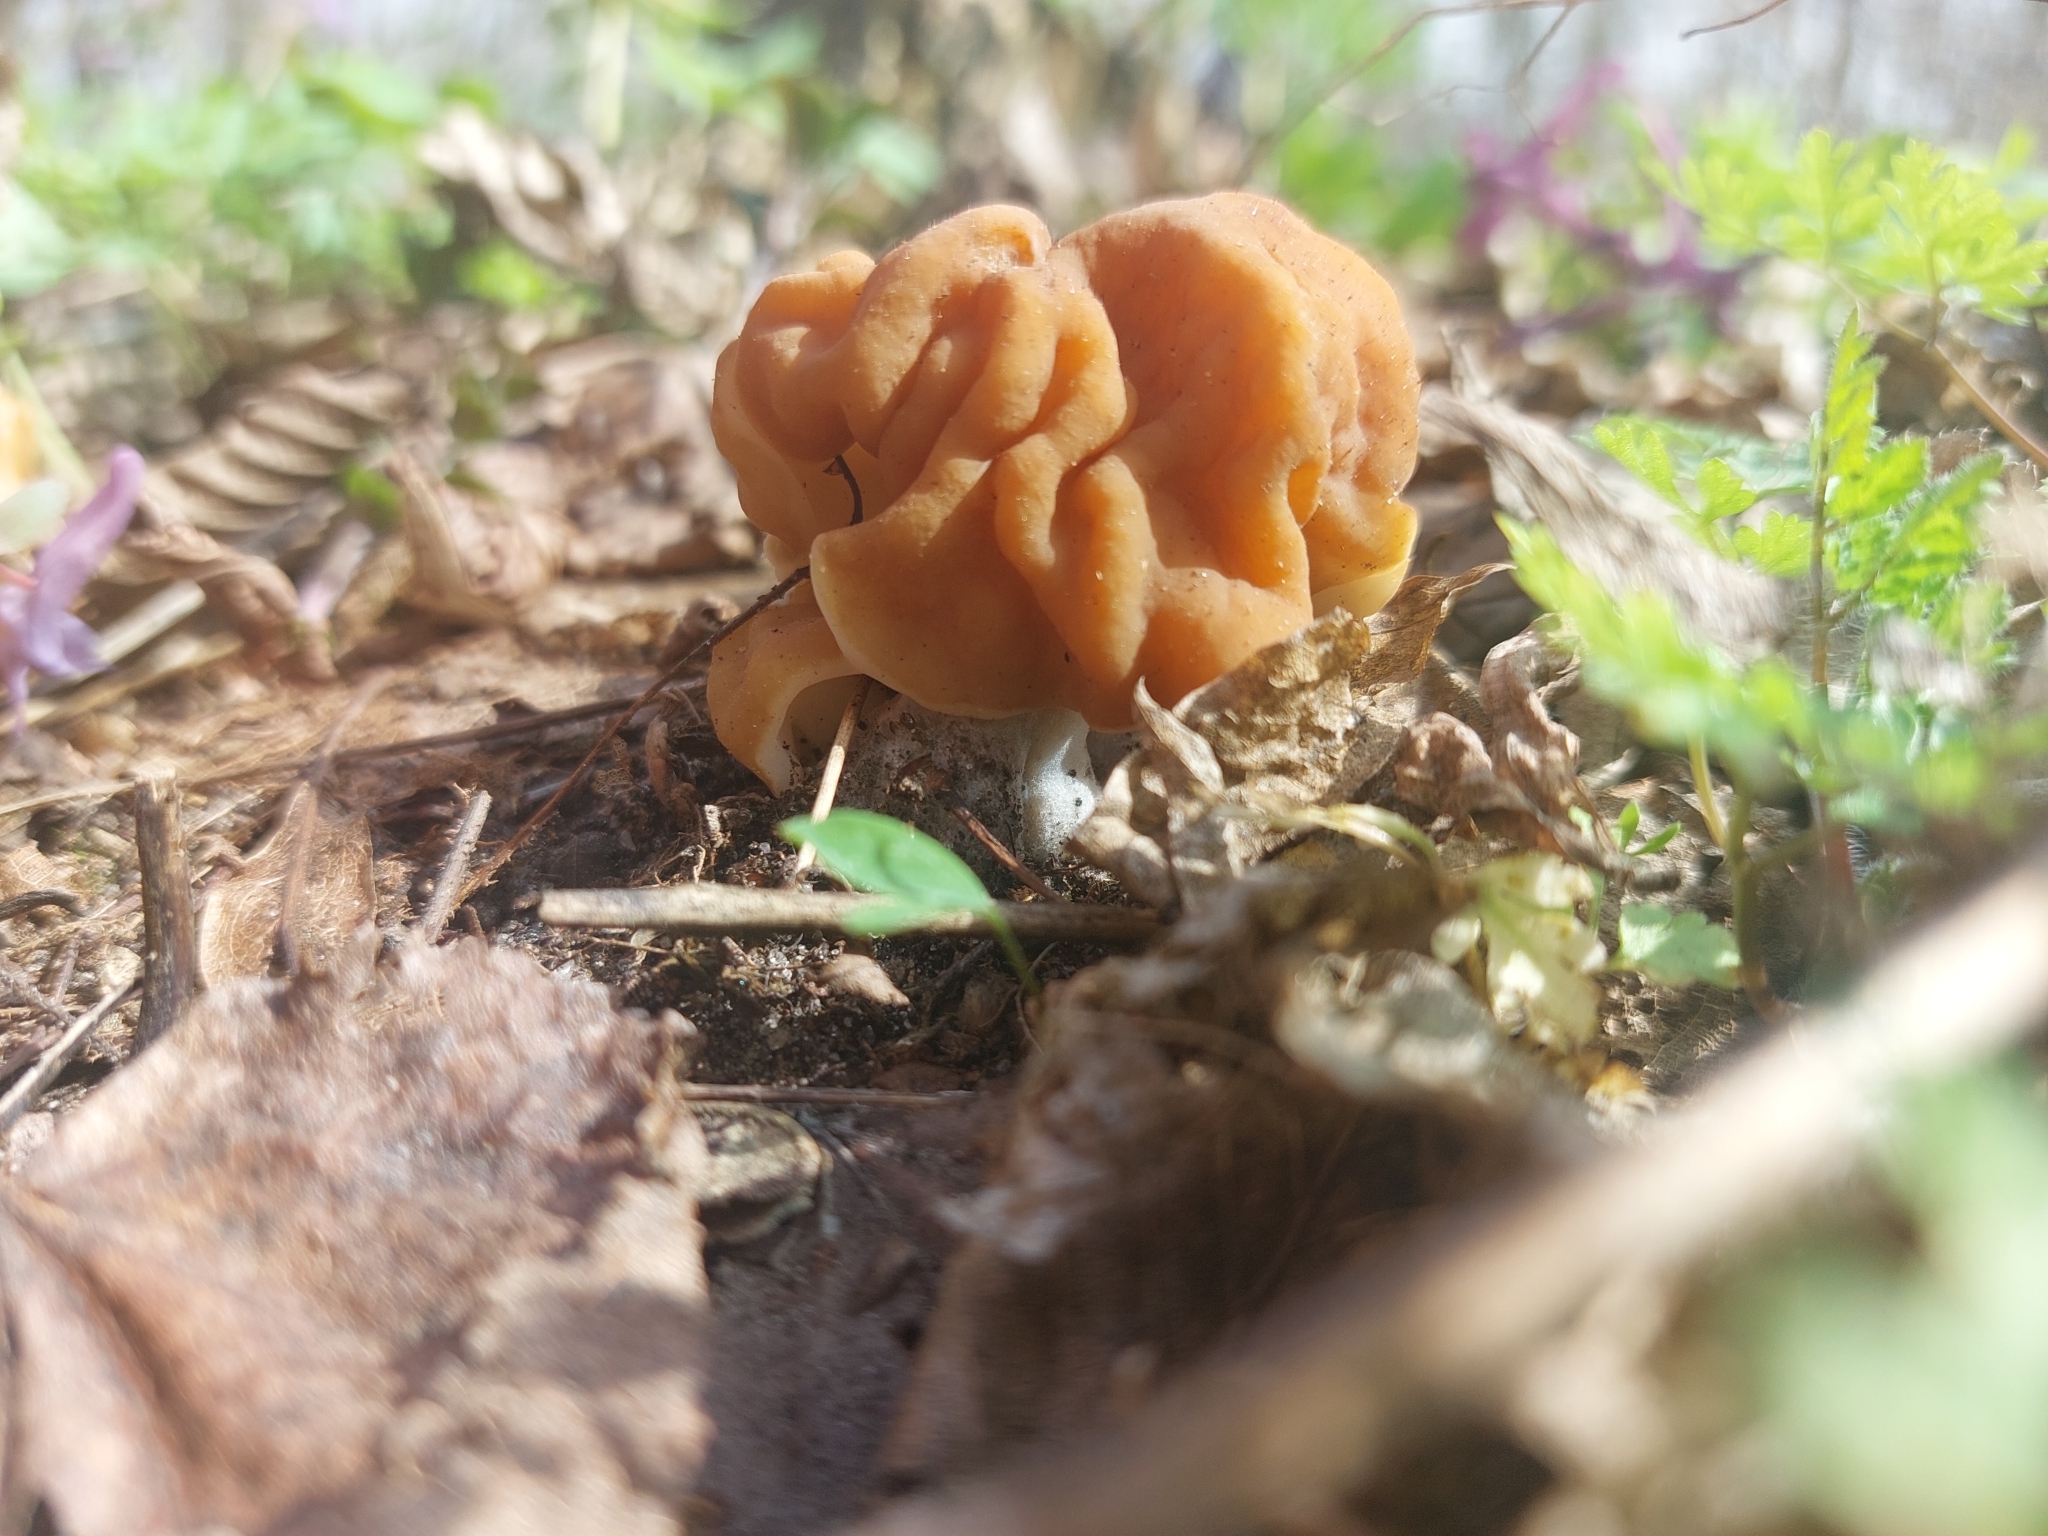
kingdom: Fungi
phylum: Ascomycota
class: Pezizomycetes
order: Pezizales
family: Discinaceae
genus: Gyromitra
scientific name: Gyromitra gigas
